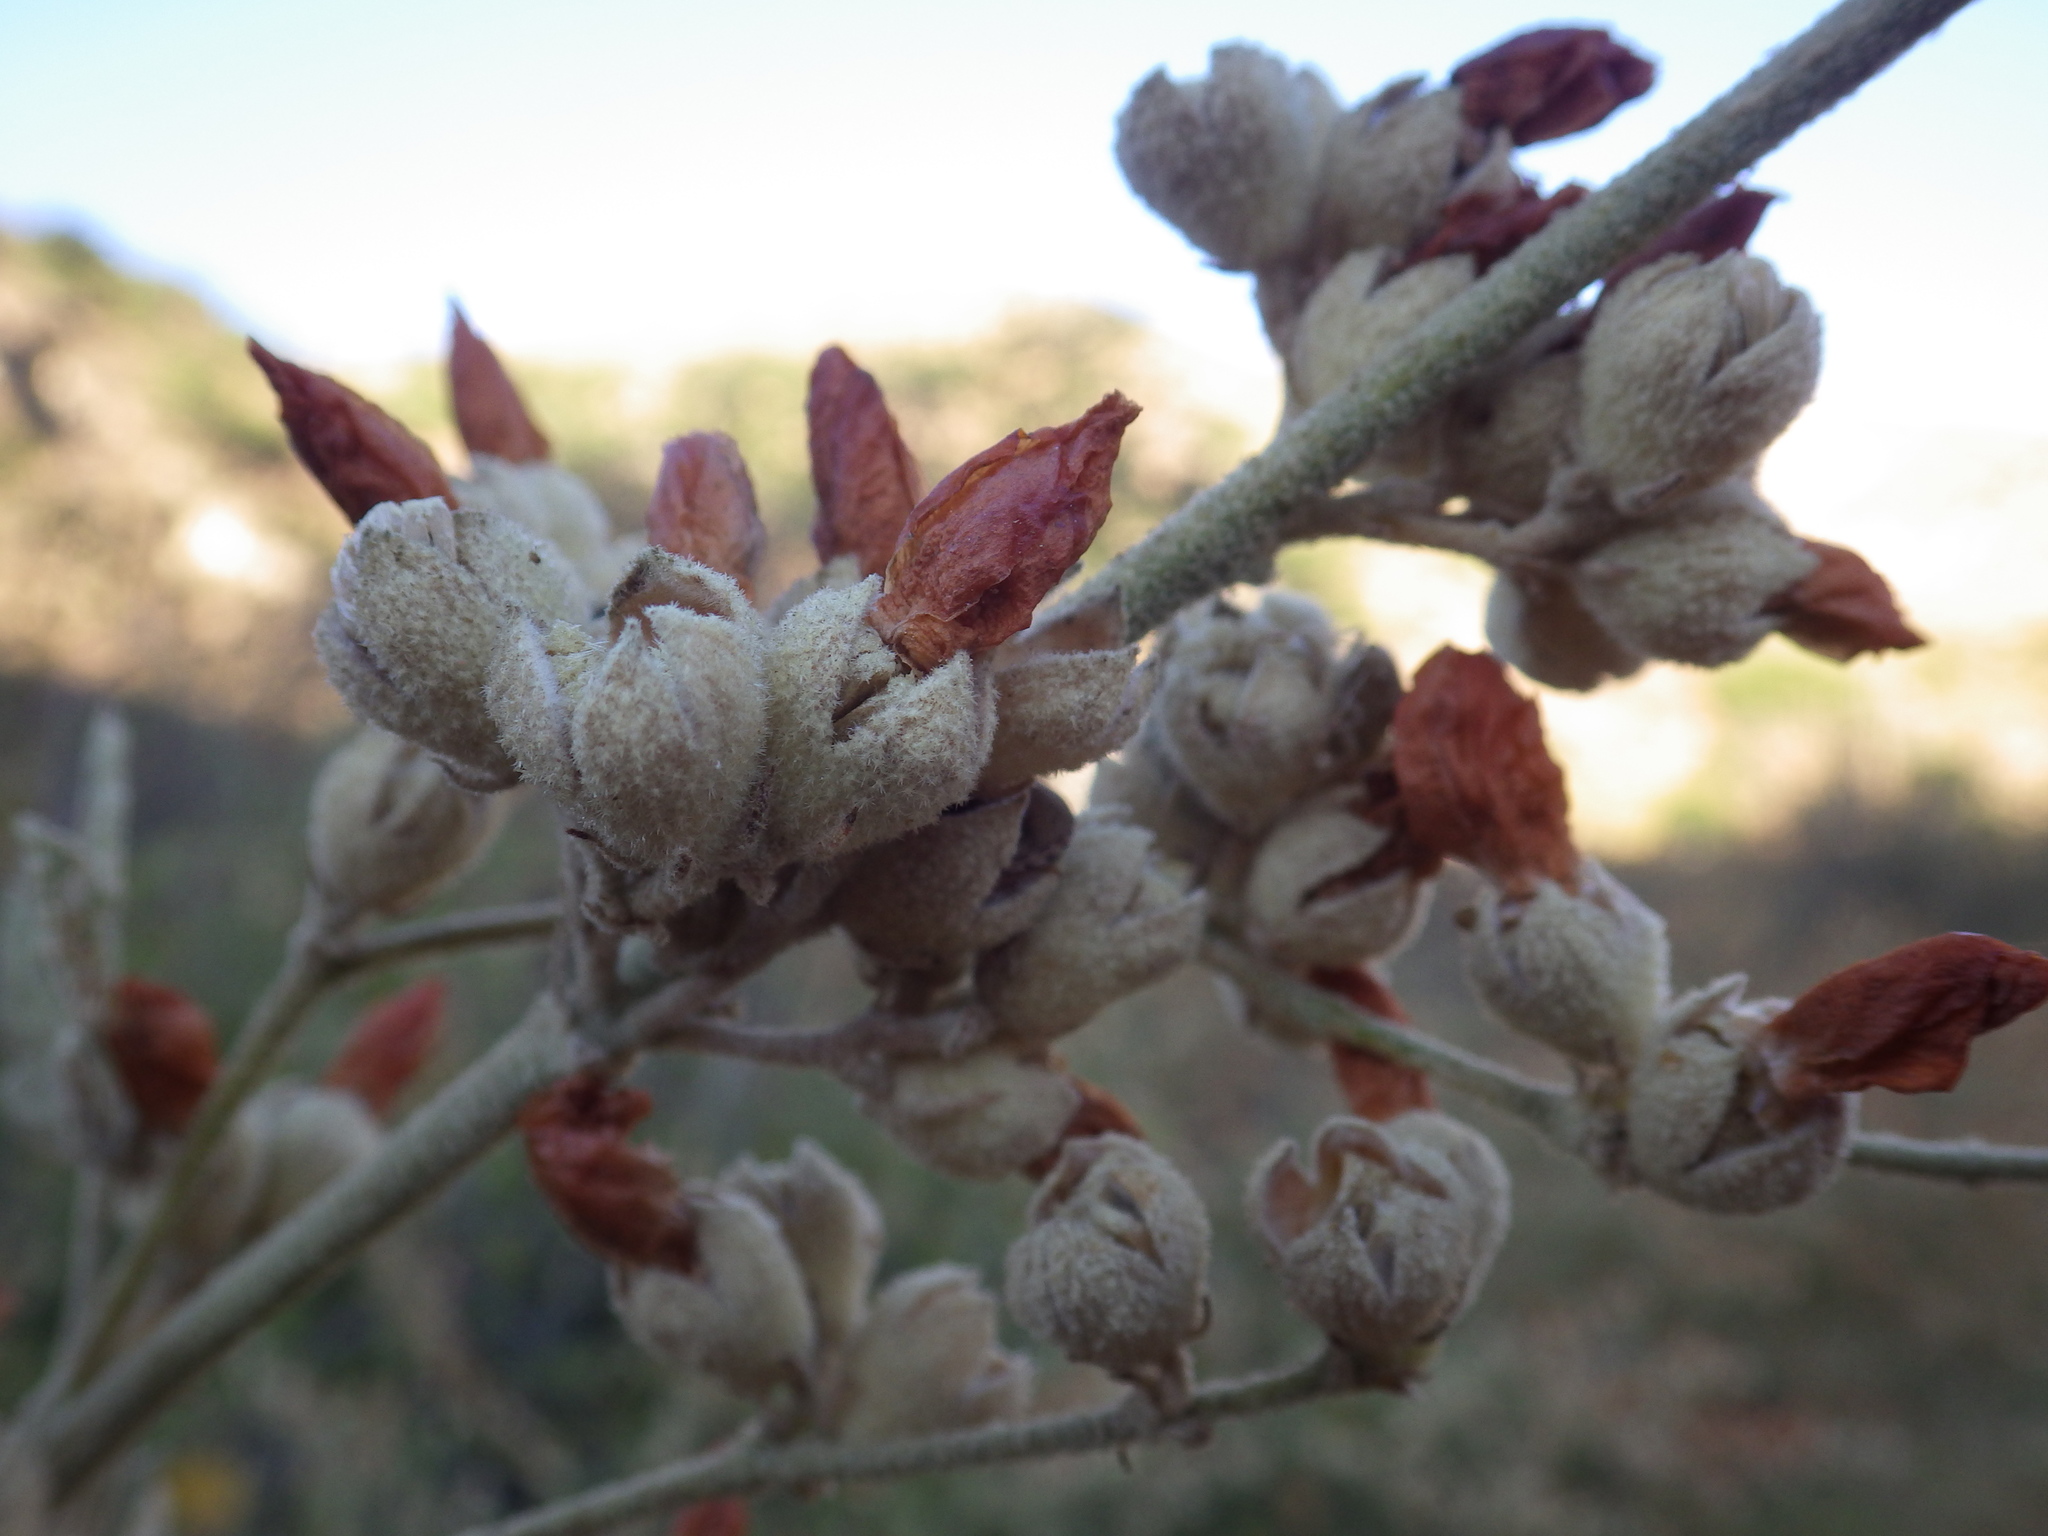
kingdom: Plantae
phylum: Tracheophyta
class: Magnoliopsida
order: Malvales
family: Malvaceae
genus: Malacothamnus
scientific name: Malacothamnus fasciculatus
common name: Sant cruz island bush-mallow
